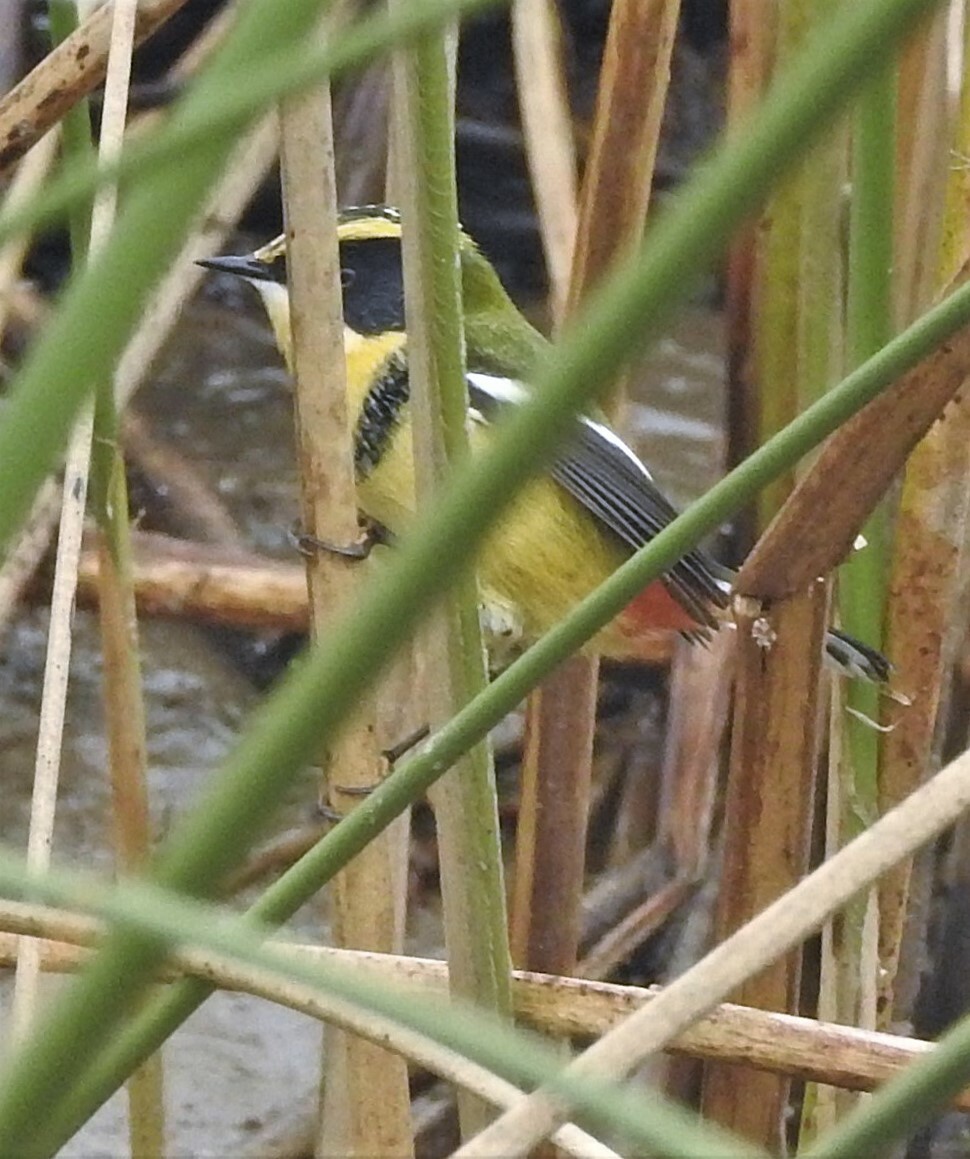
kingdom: Animalia
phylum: Chordata
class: Aves
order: Passeriformes
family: Tyrannidae
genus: Tachuris
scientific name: Tachuris rubrigastra
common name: Many-colored rush tyrant
